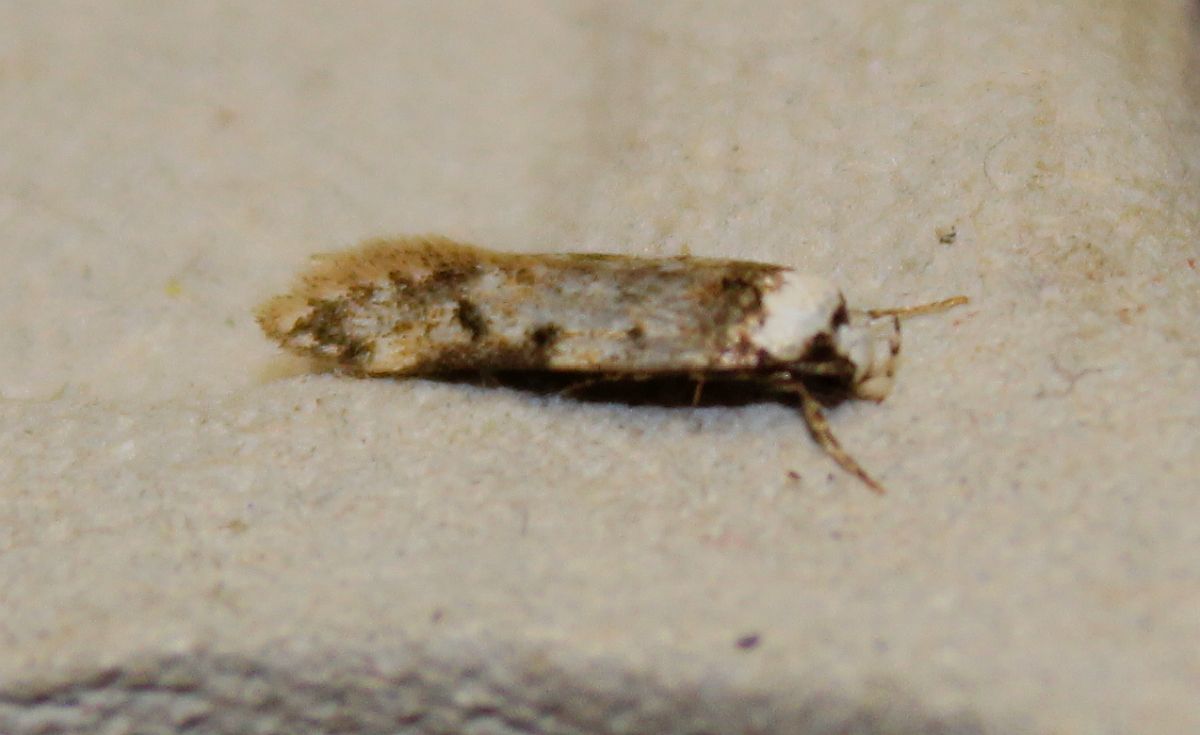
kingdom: Animalia
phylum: Arthropoda
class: Insecta
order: Lepidoptera
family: Oecophoridae
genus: Endrosis
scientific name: Endrosis sarcitrella
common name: White-shouldered house moth
